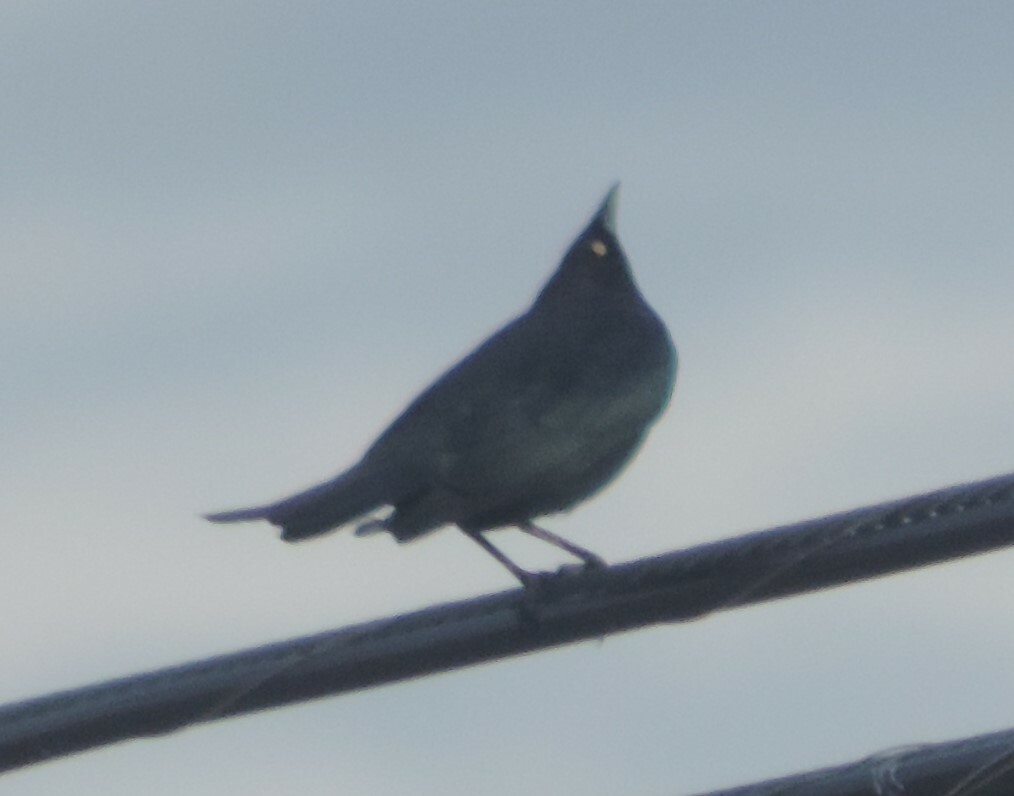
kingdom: Animalia
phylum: Chordata
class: Aves
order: Passeriformes
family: Icteridae
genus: Euphagus
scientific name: Euphagus cyanocephalus
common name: Brewer's blackbird
